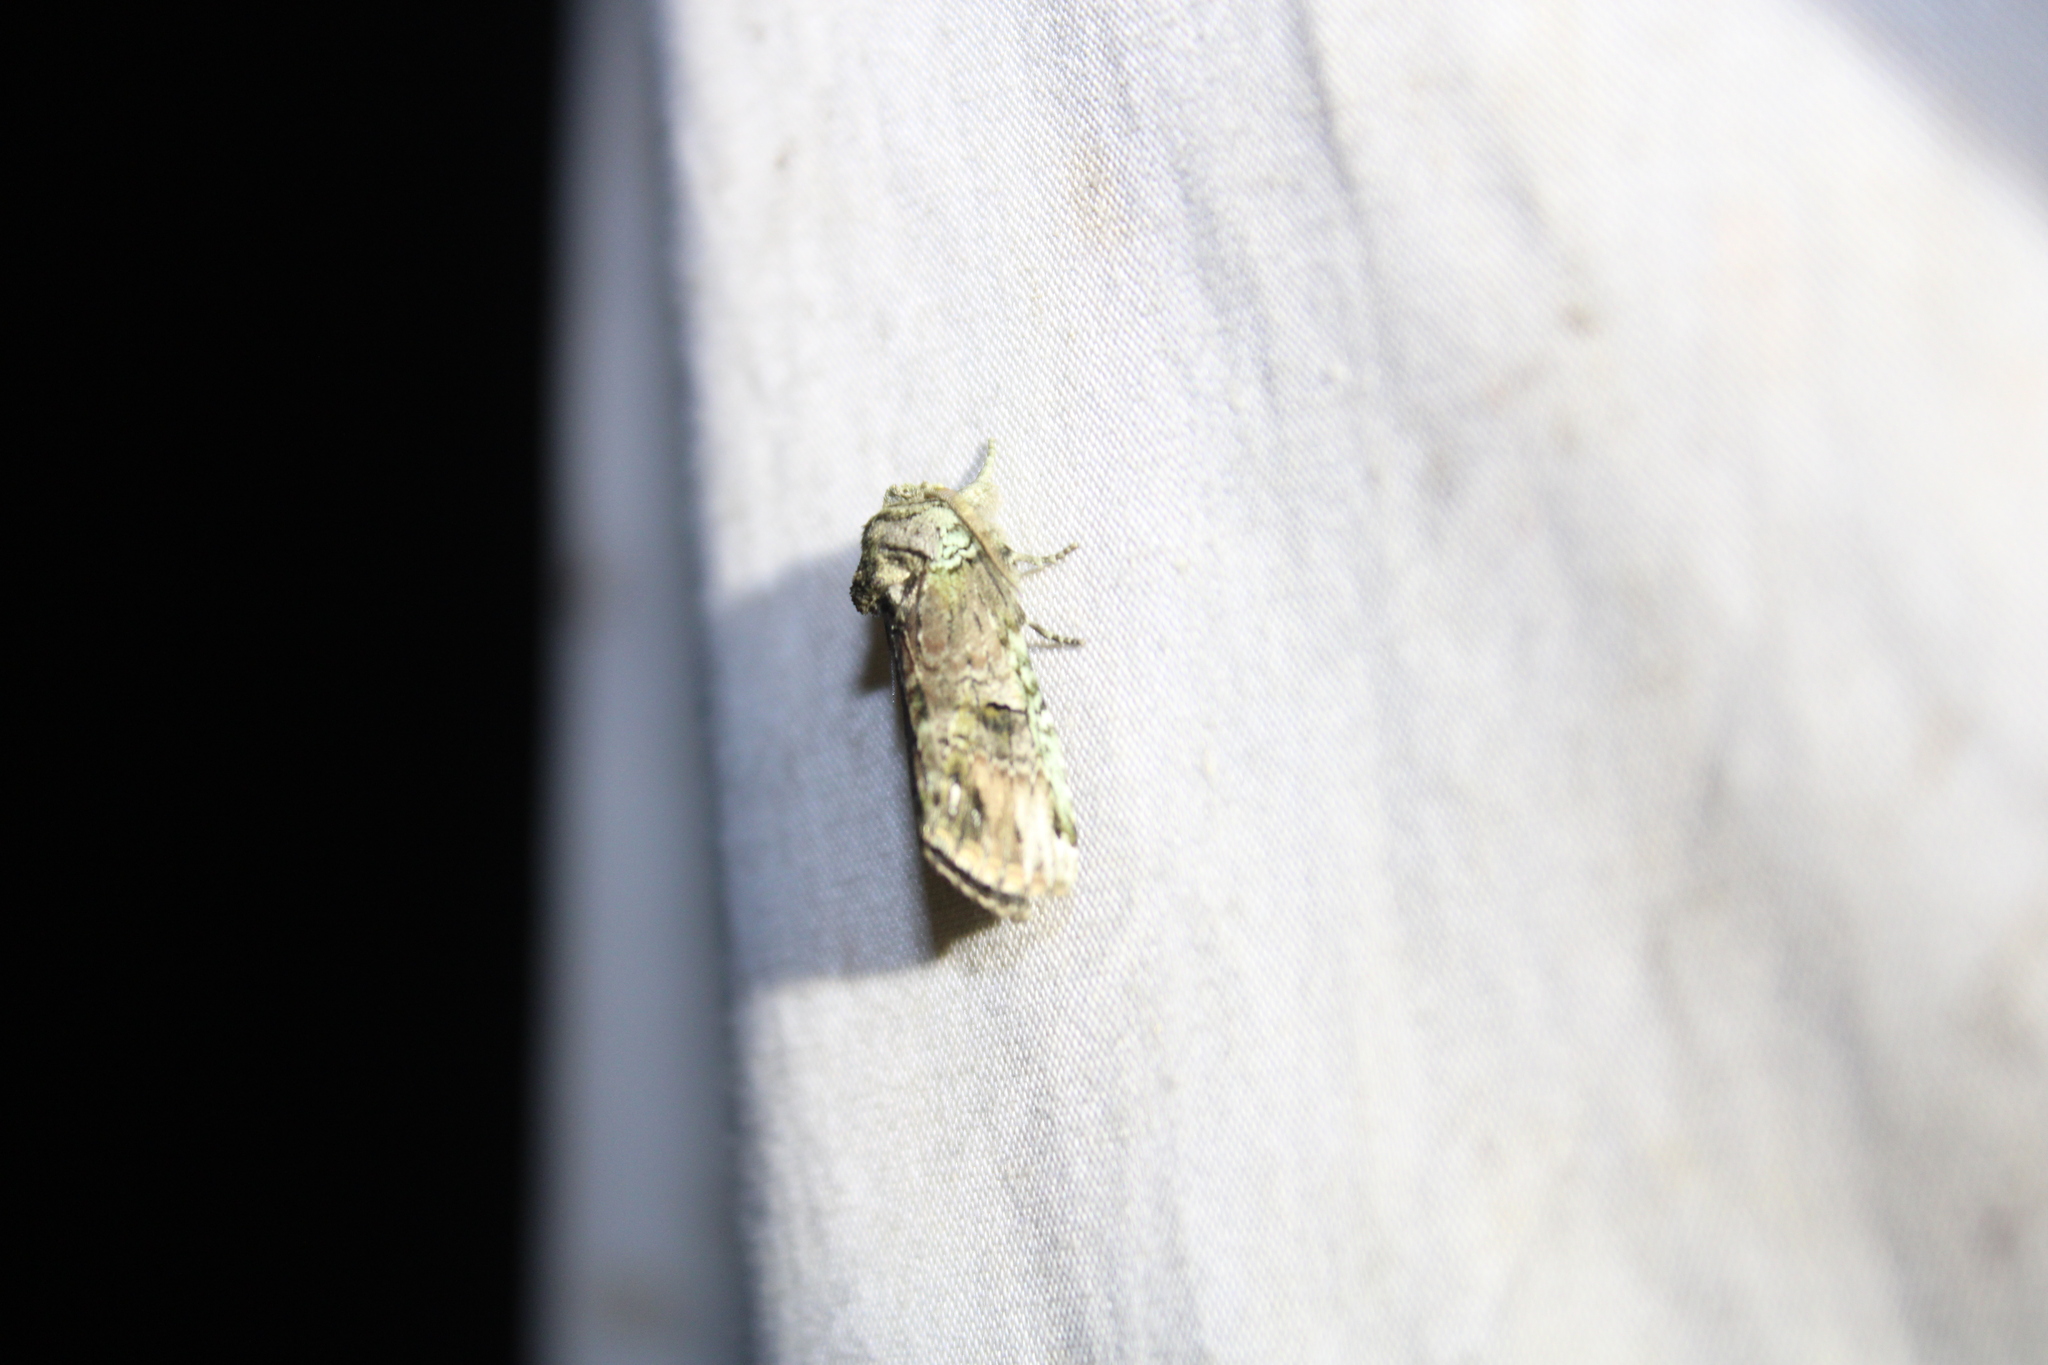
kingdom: Animalia
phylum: Arthropoda
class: Insecta
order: Lepidoptera
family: Notodontidae
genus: Schizura
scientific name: Schizura
